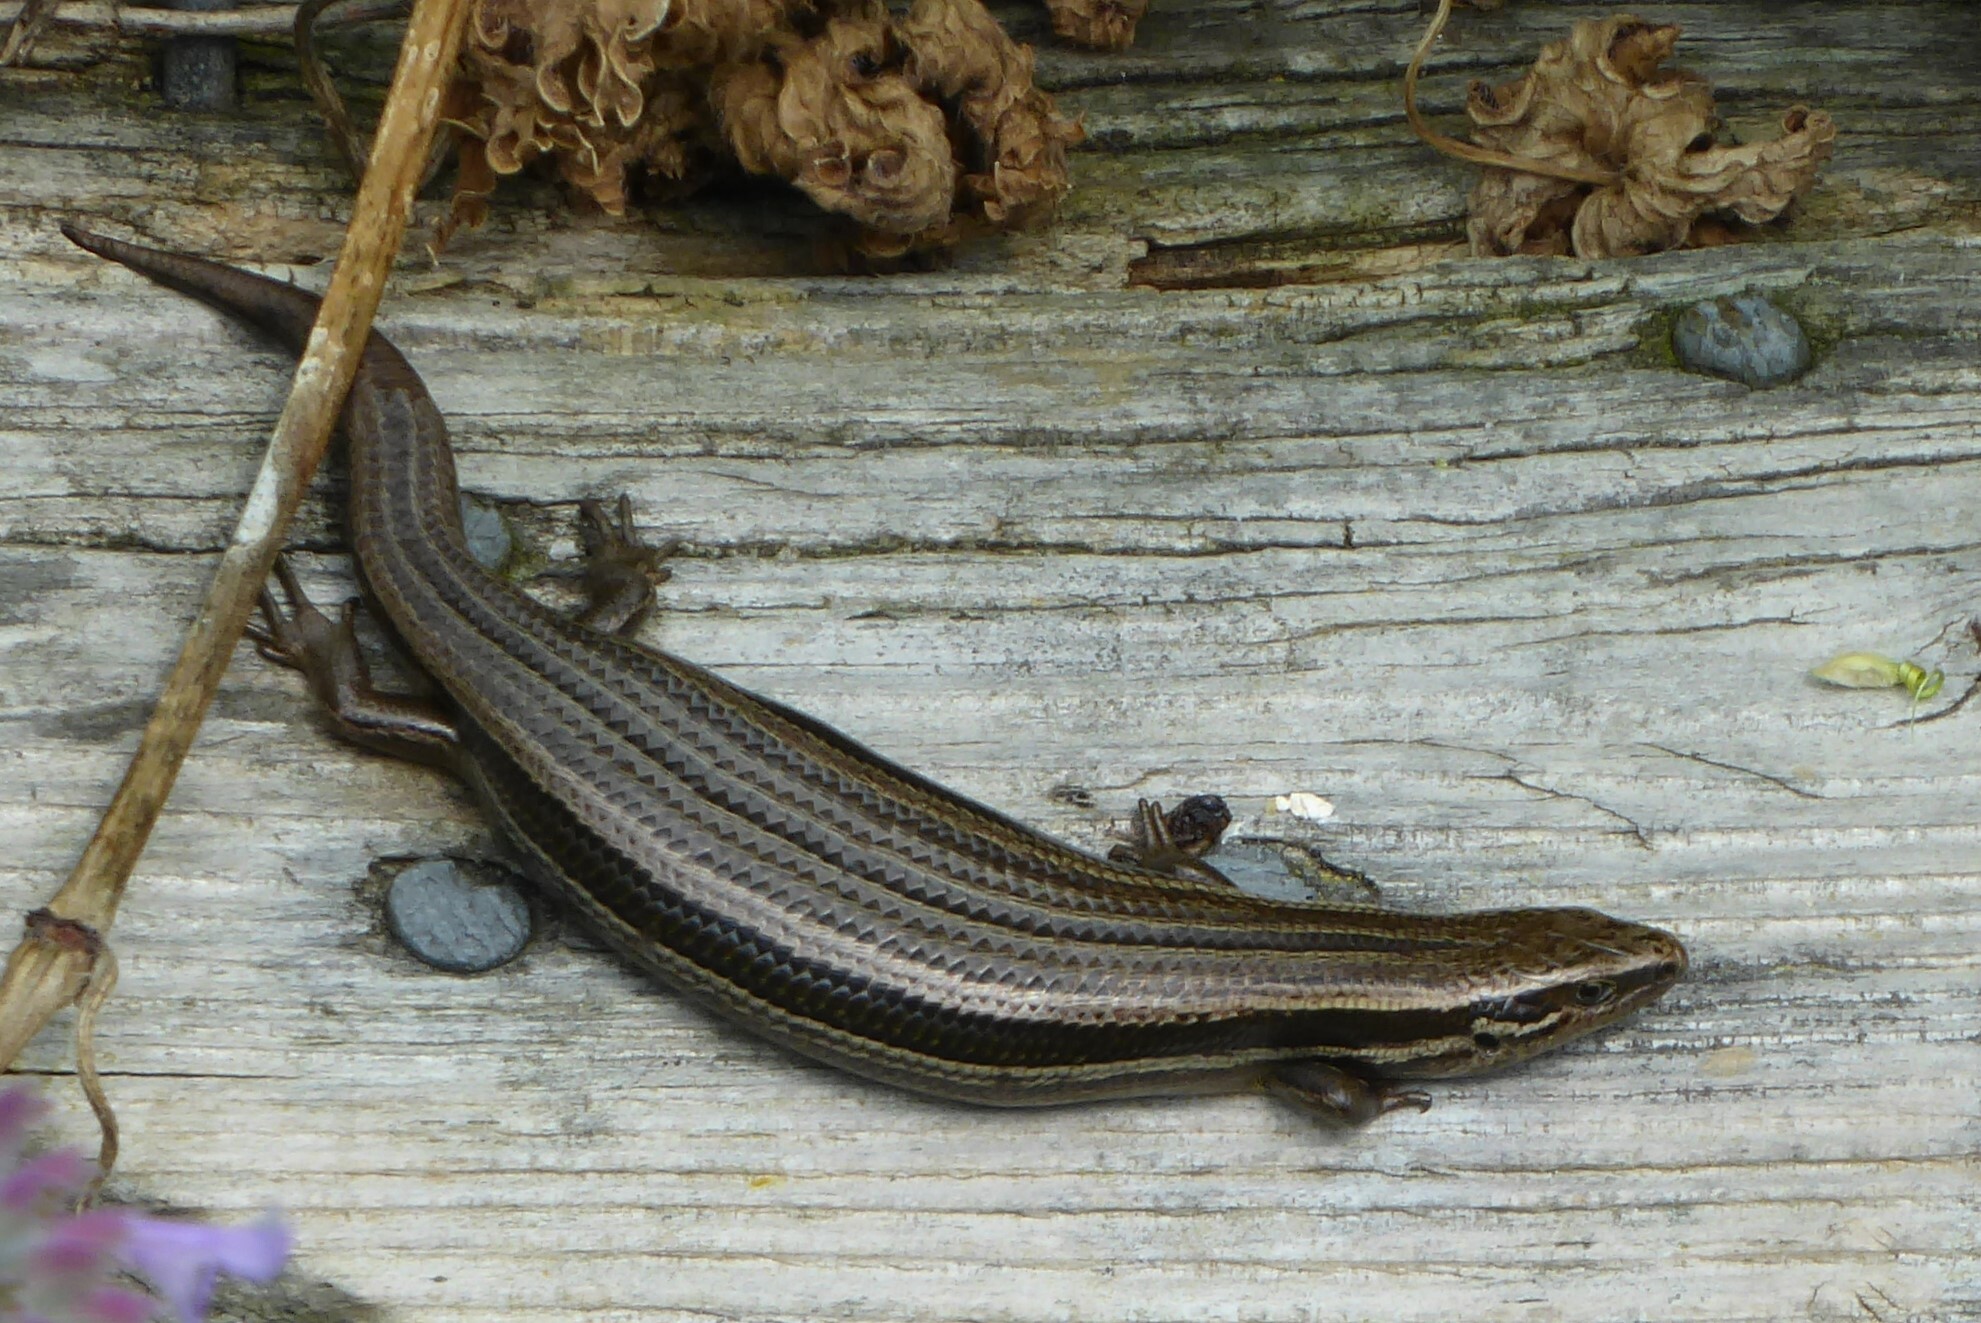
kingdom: Animalia
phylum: Chordata
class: Squamata
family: Scincidae
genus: Oligosoma
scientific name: Oligosoma polychroma
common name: Common new zealand skink
